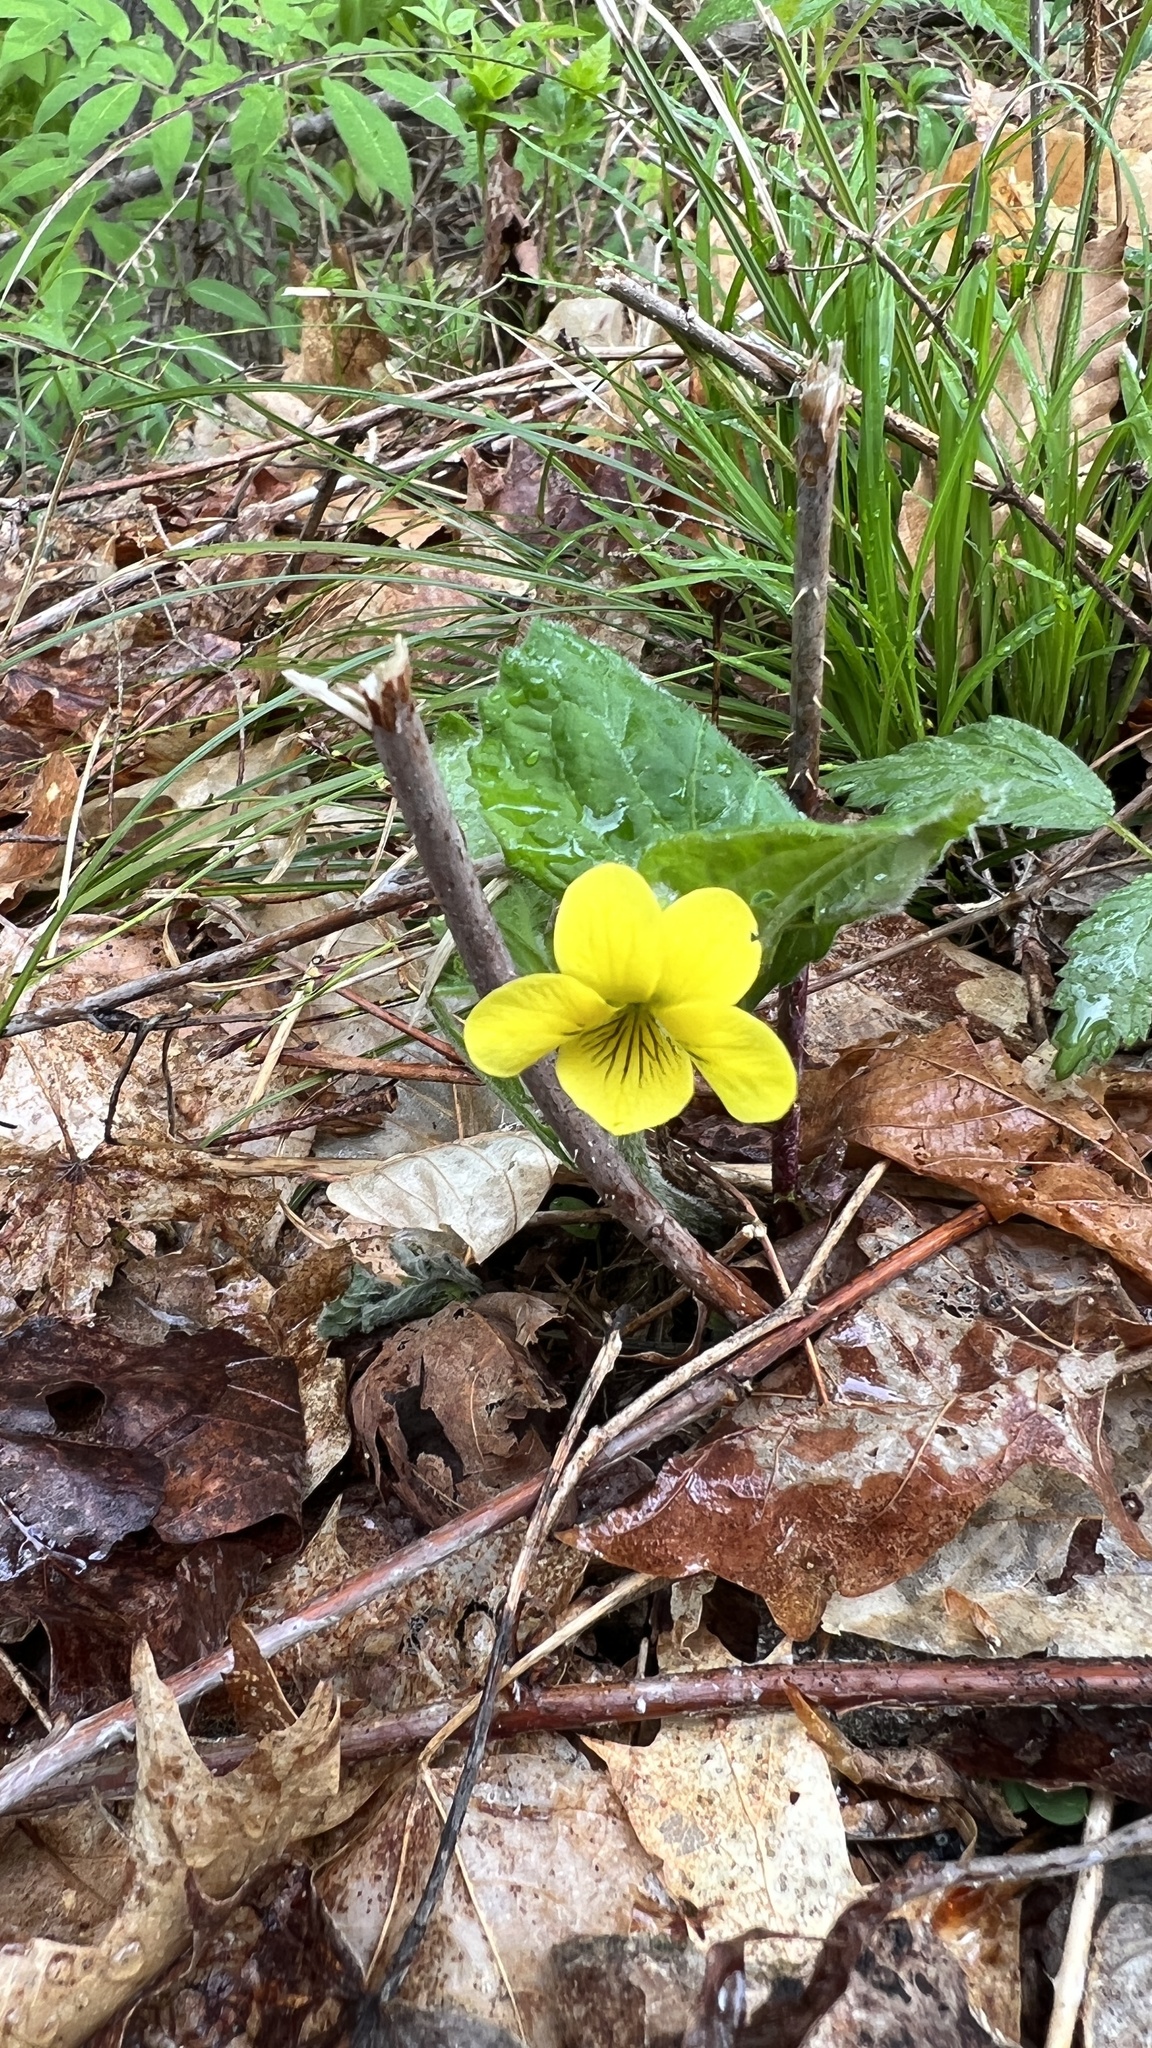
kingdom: Plantae
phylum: Tracheophyta
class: Magnoliopsida
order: Malpighiales
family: Violaceae
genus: Viola
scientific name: Viola pubescens
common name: Yellow forest violet
